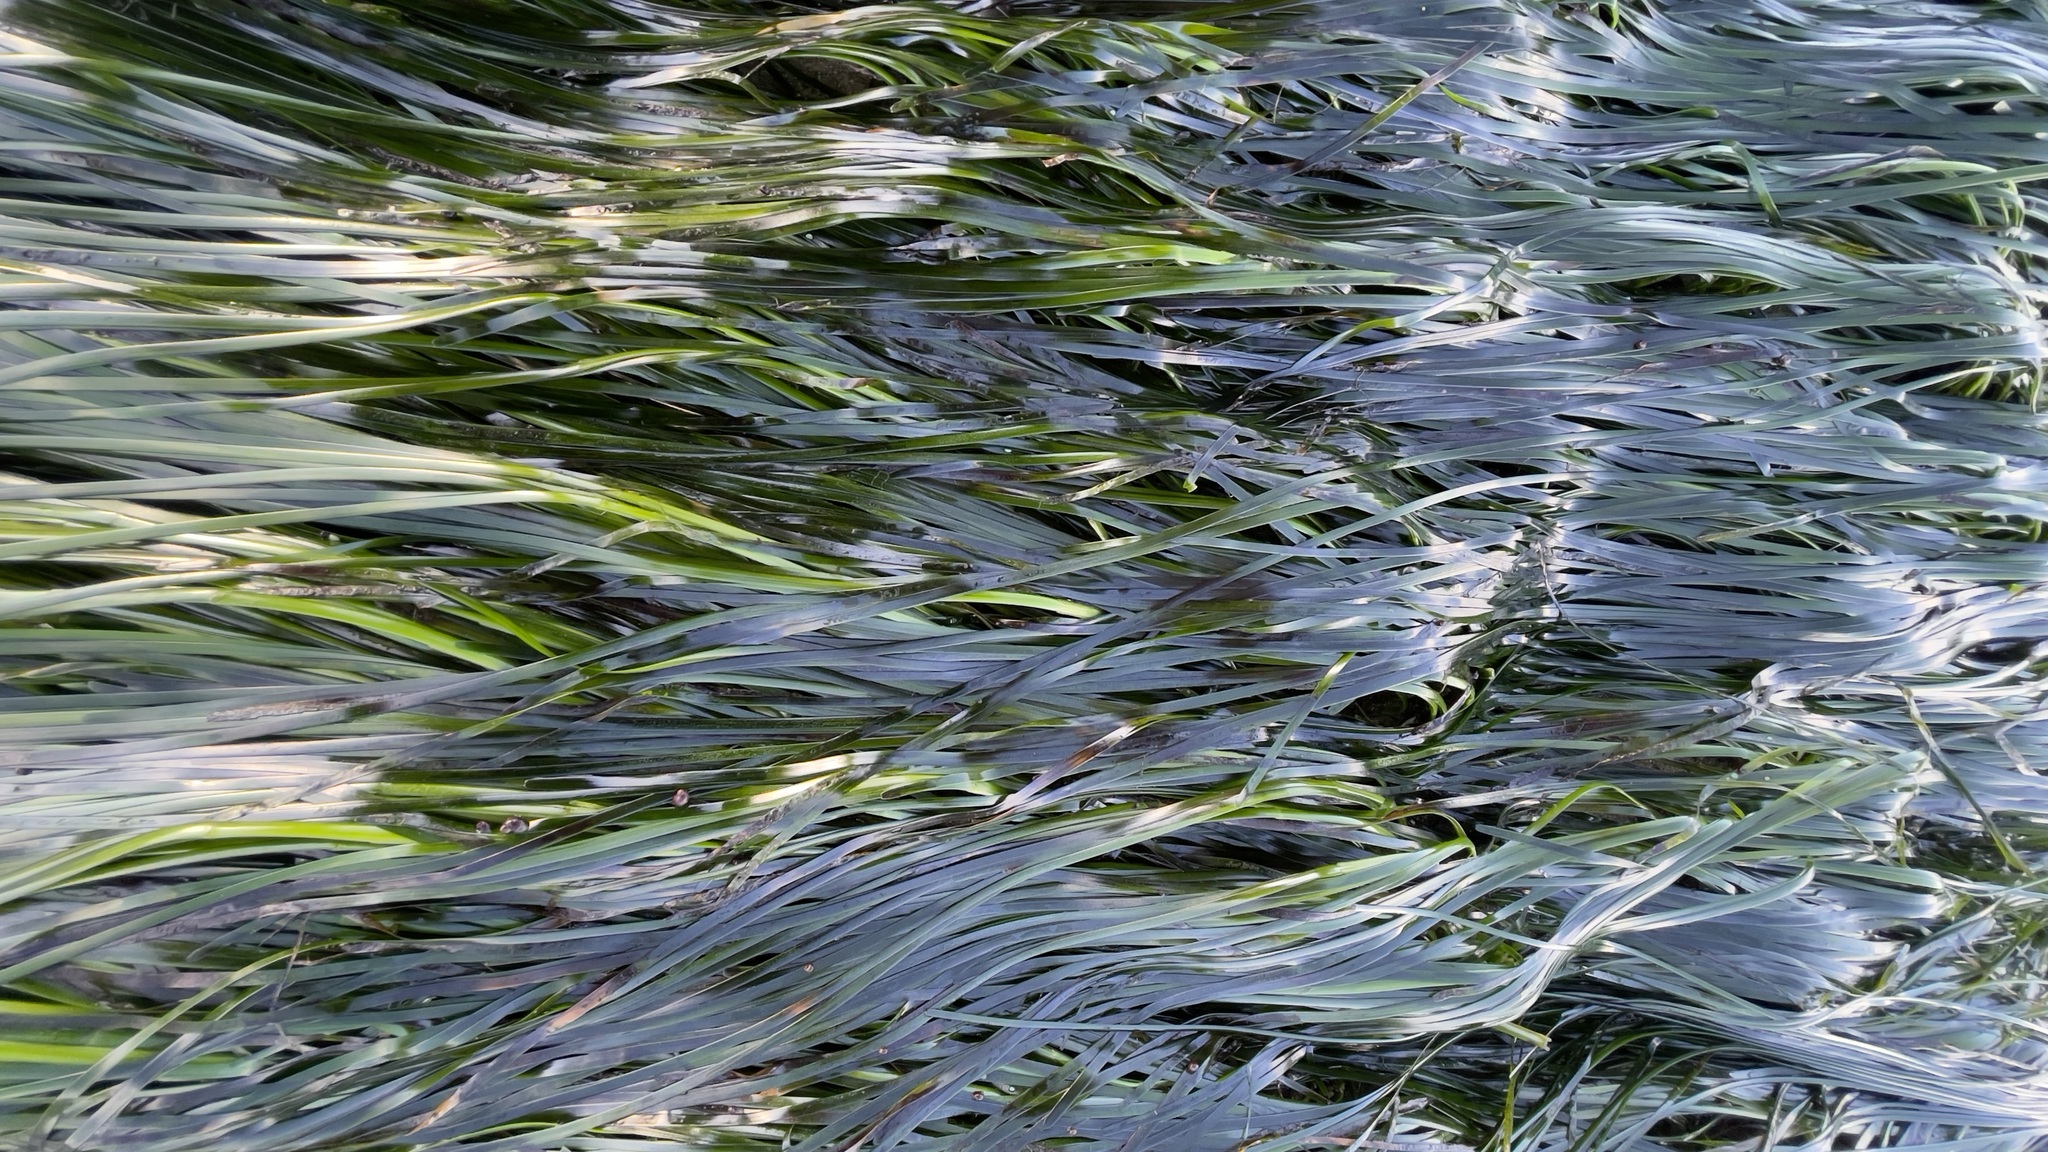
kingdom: Plantae
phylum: Tracheophyta
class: Liliopsida
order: Alismatales
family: Zosteraceae
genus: Phyllospadix
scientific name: Phyllospadix scouleri
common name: Species code: ps
